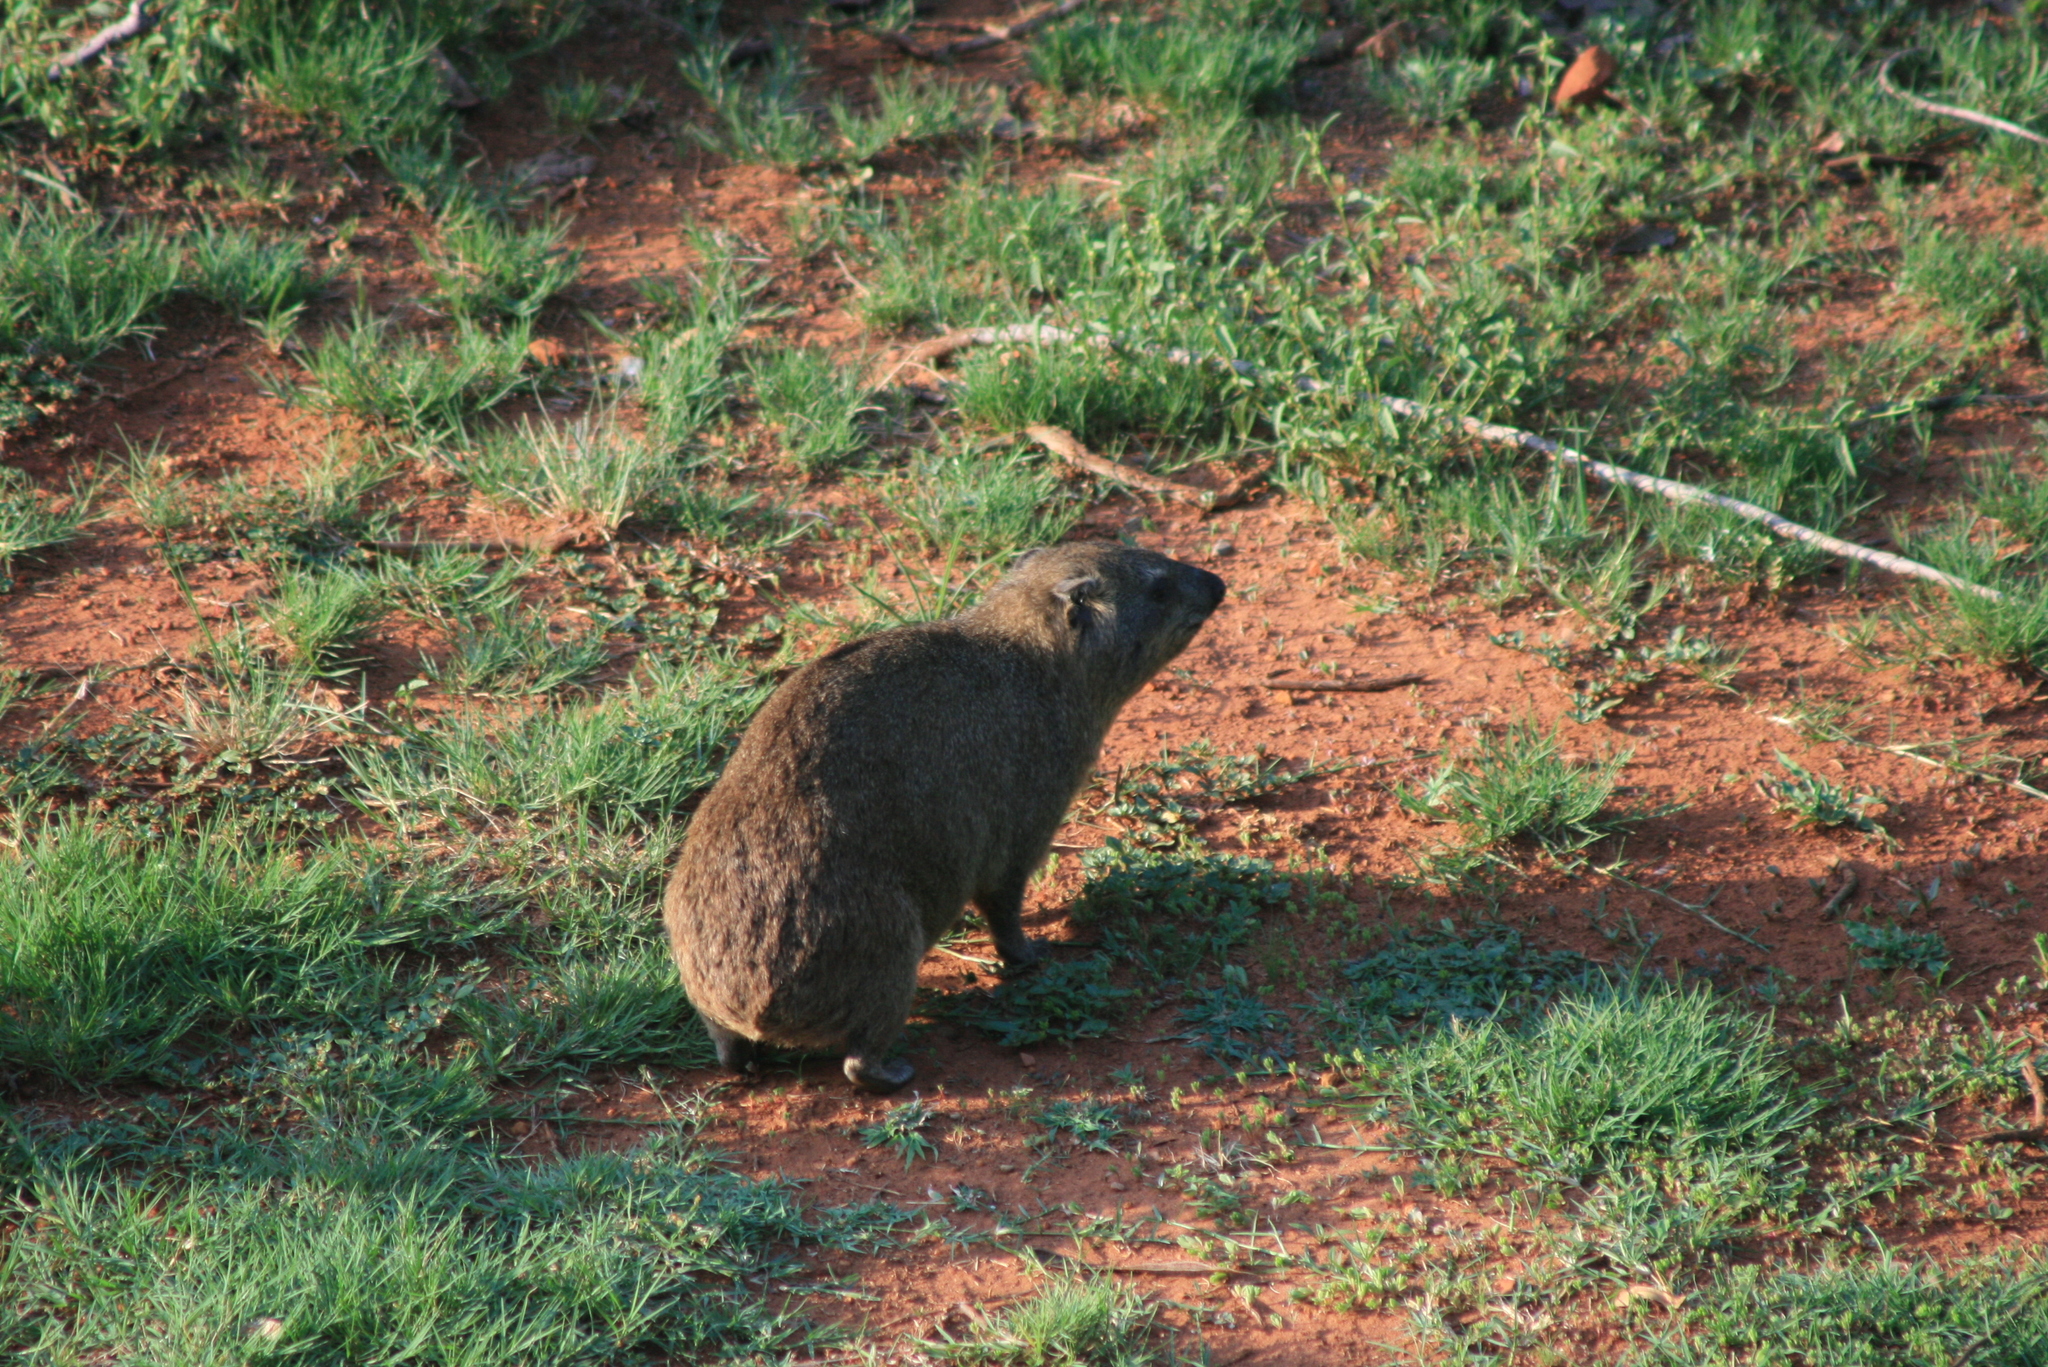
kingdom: Animalia
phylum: Chordata
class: Mammalia
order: Hyracoidea
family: Procaviidae
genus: Procavia
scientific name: Procavia capensis
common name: Rock hyrax
